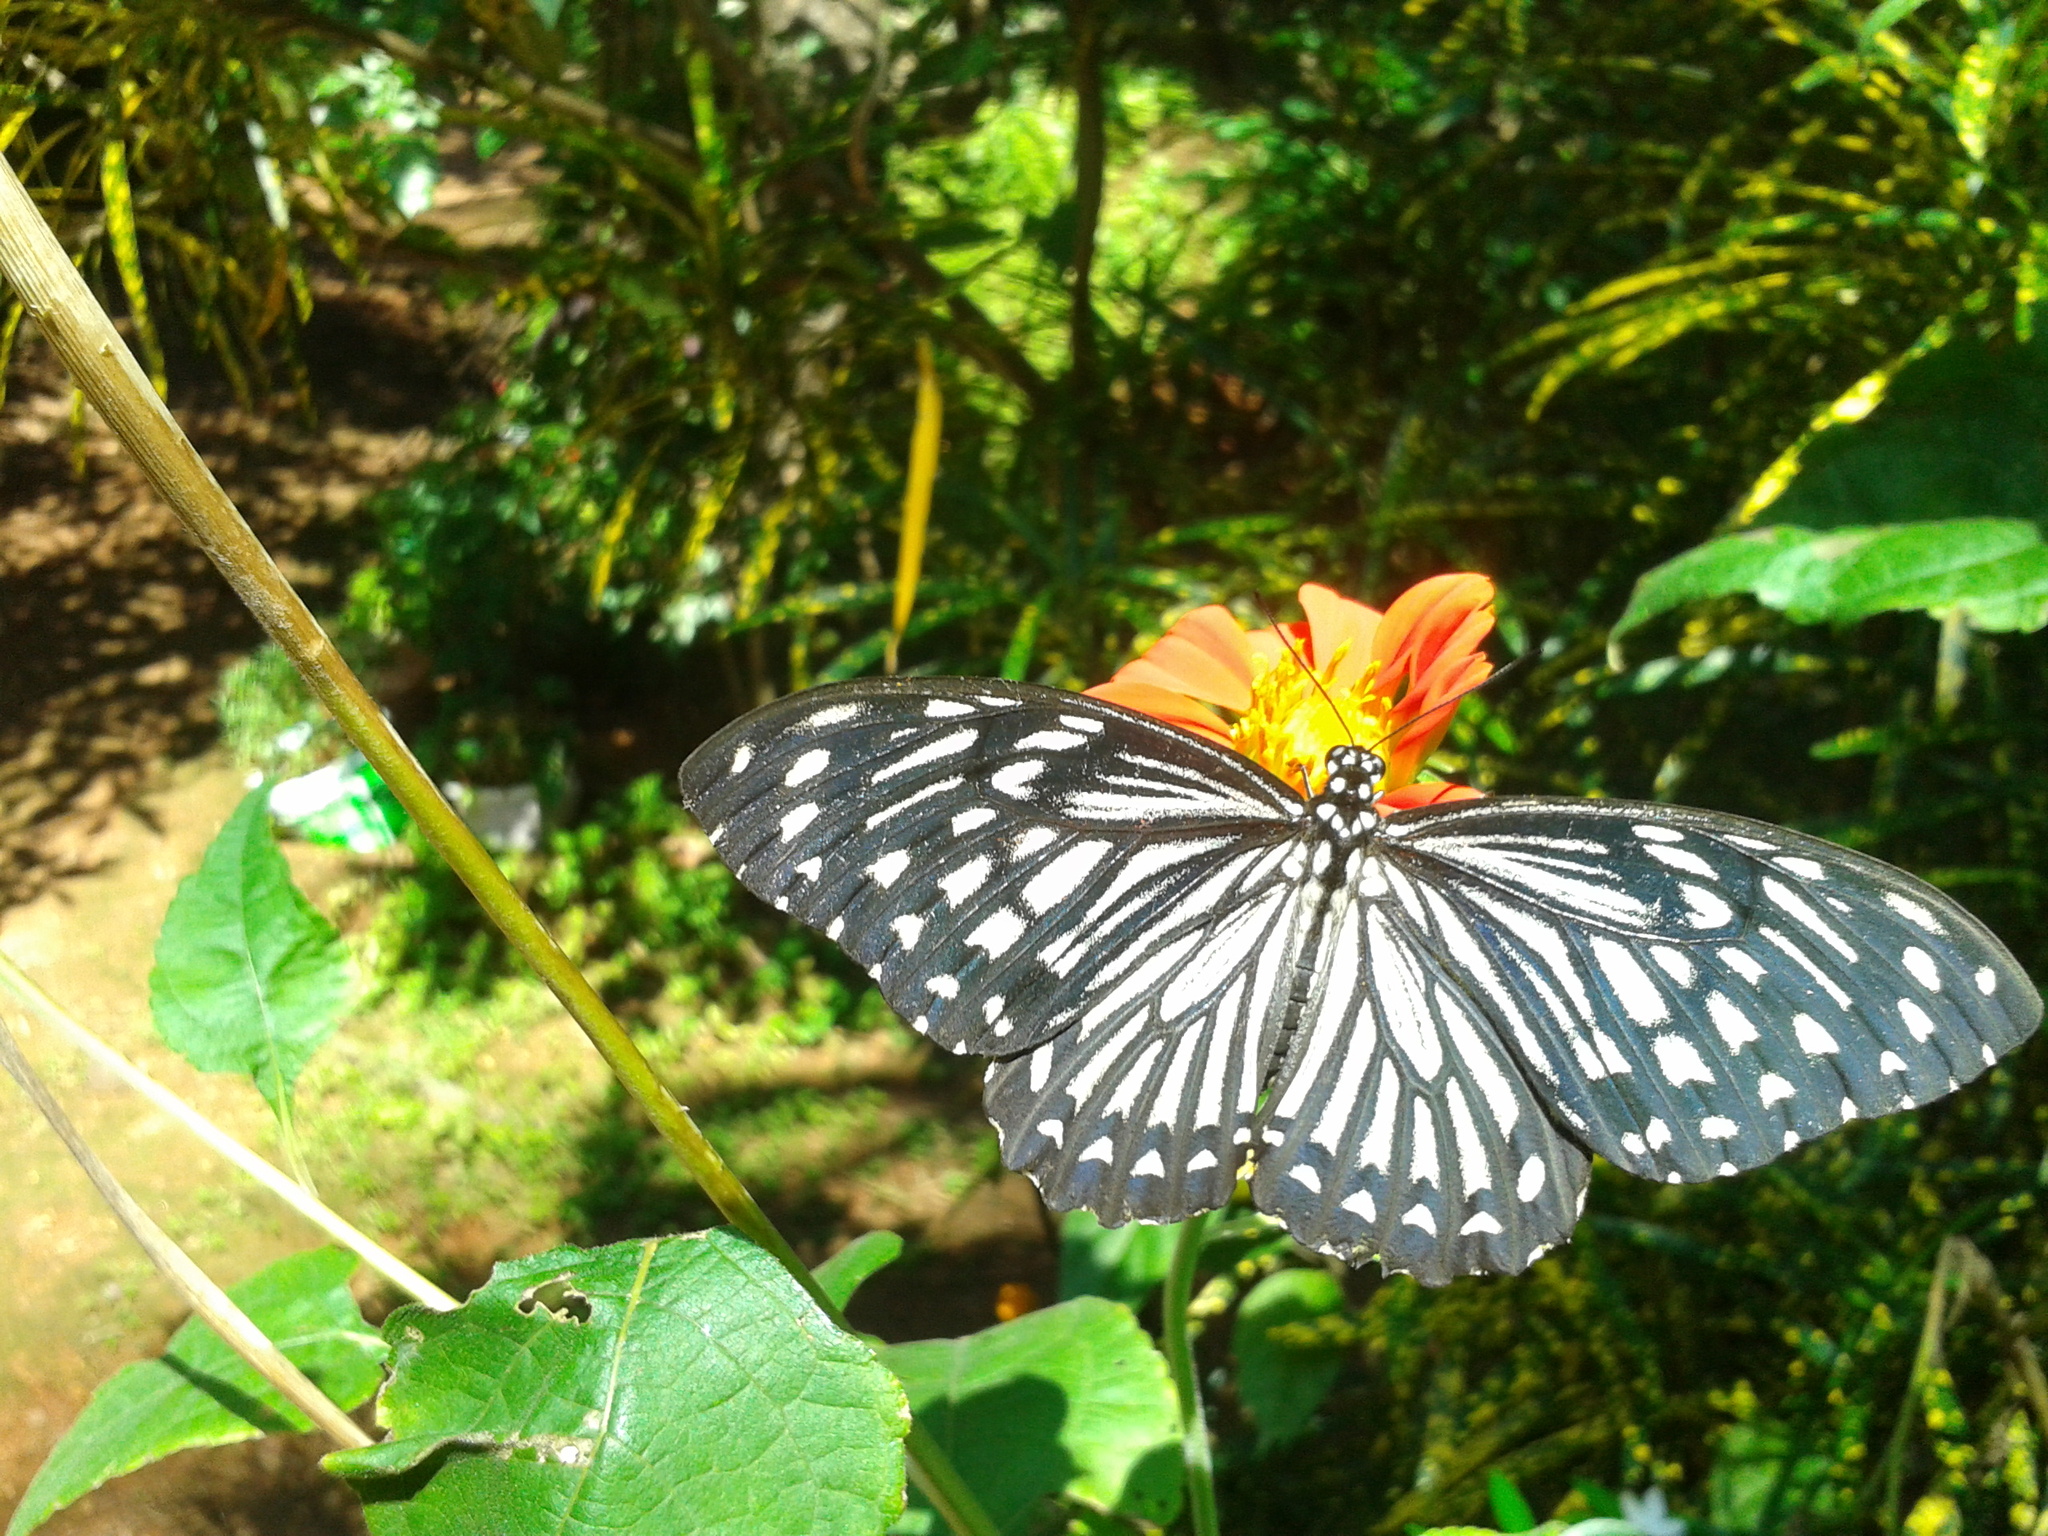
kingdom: Animalia
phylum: Arthropoda
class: Insecta
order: Lepidoptera
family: Papilionidae
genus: Chilasa
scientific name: Chilasa clytia
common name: Common mime
